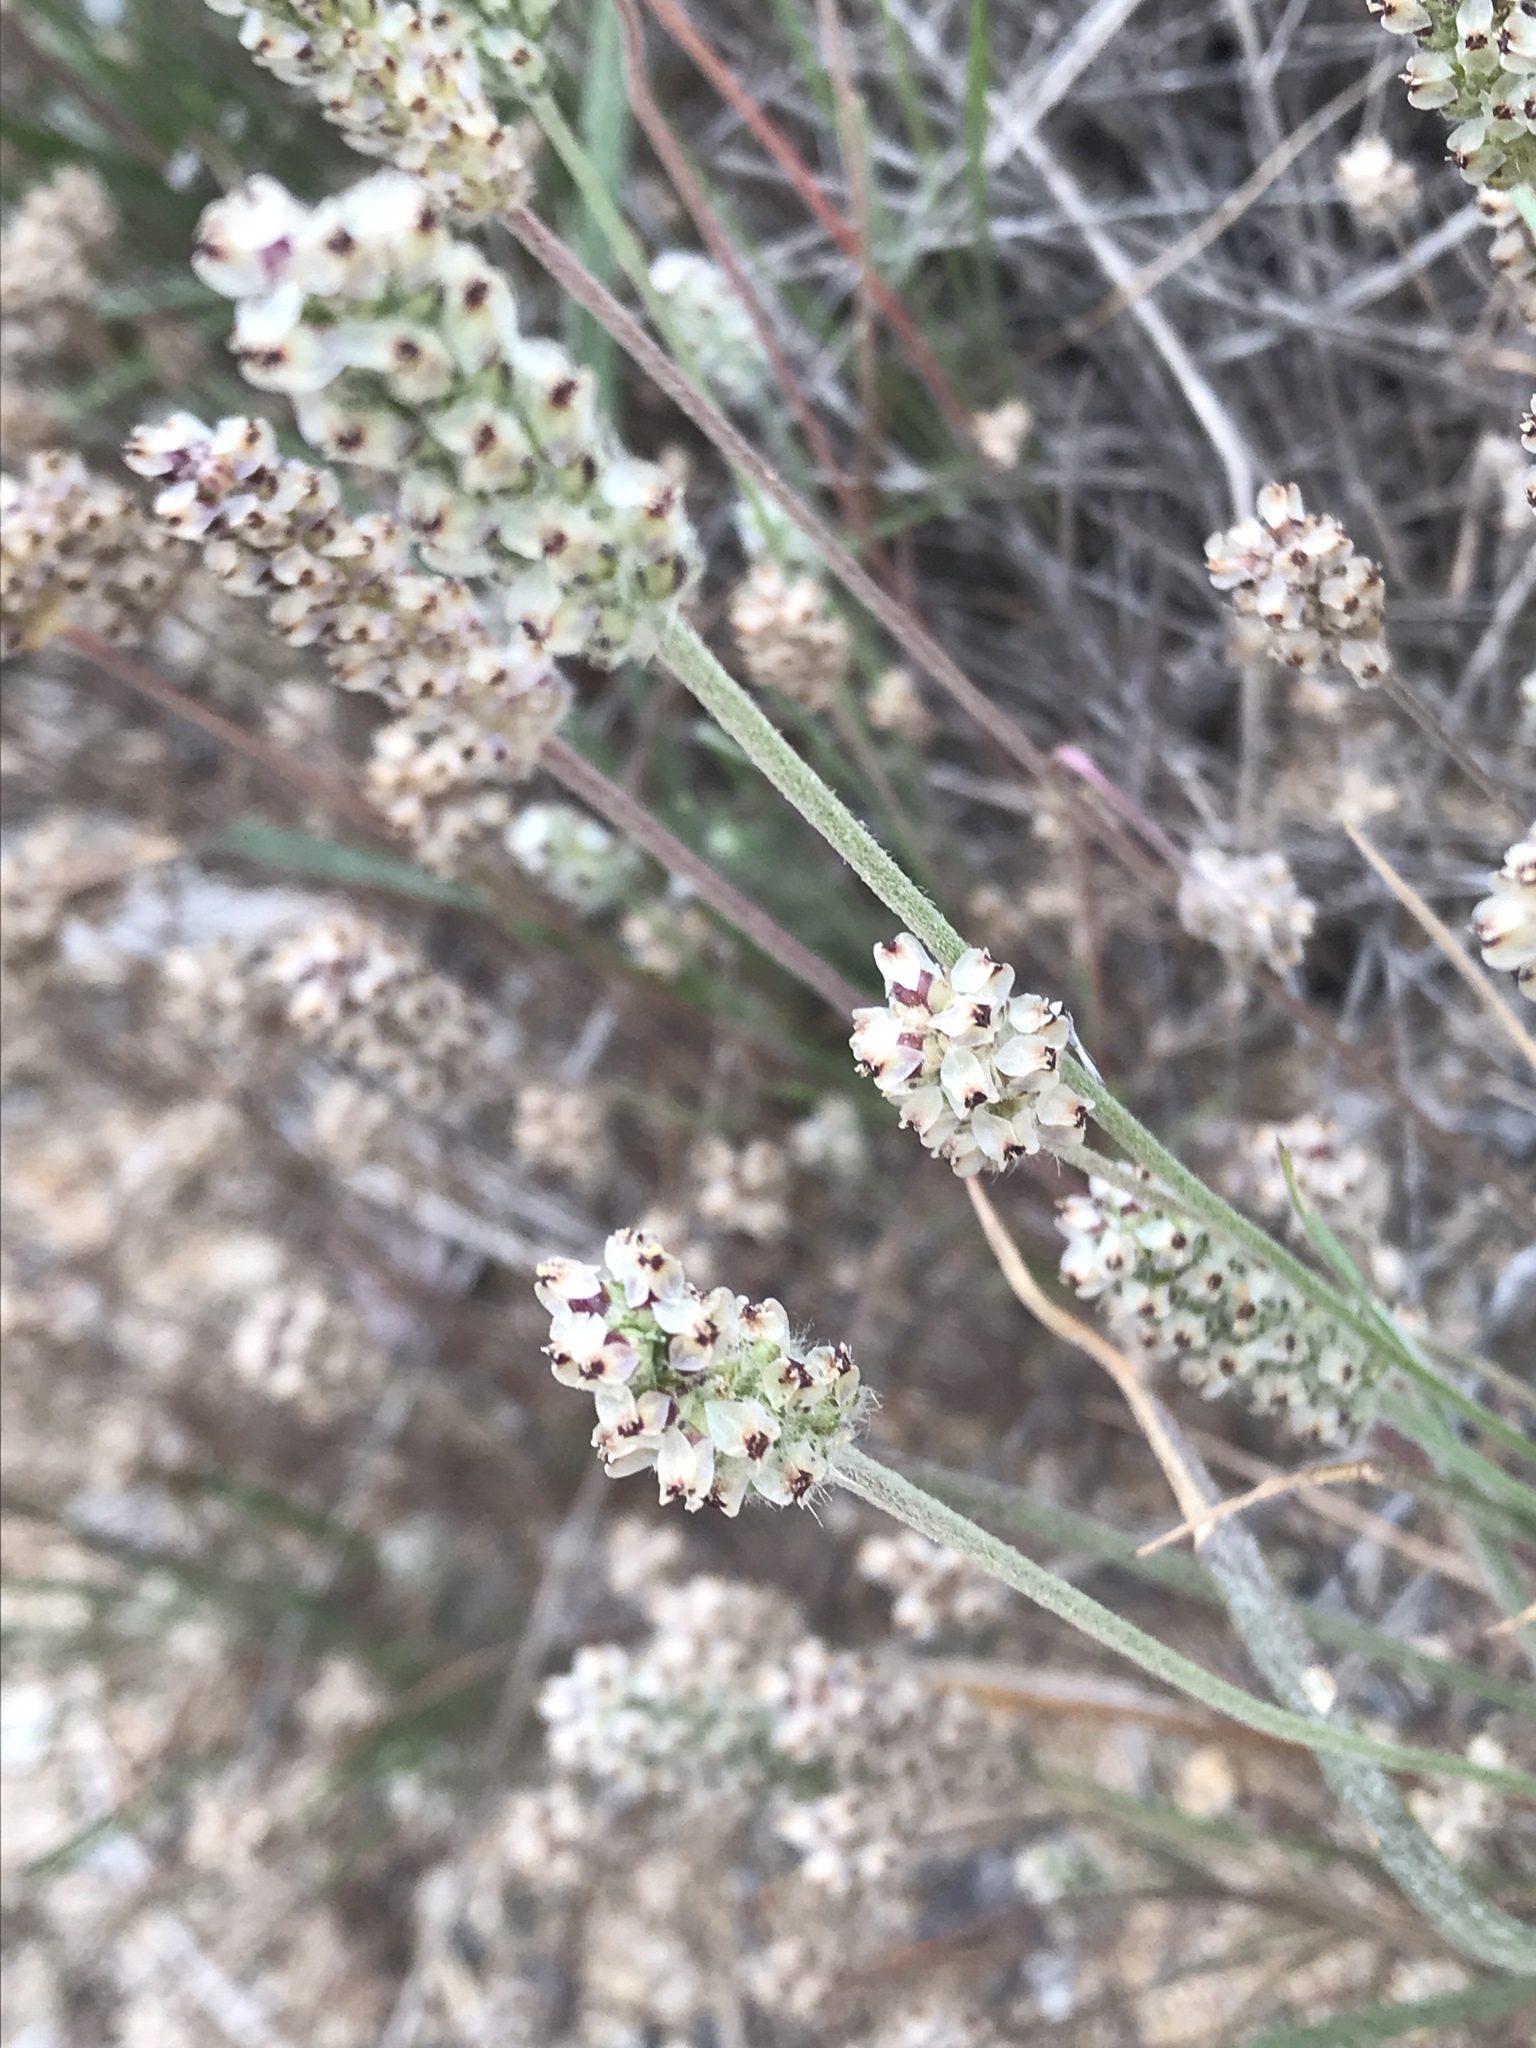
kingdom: Plantae
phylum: Tracheophyta
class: Magnoliopsida
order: Lamiales
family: Plantaginaceae
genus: Plantago
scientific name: Plantago erecta
